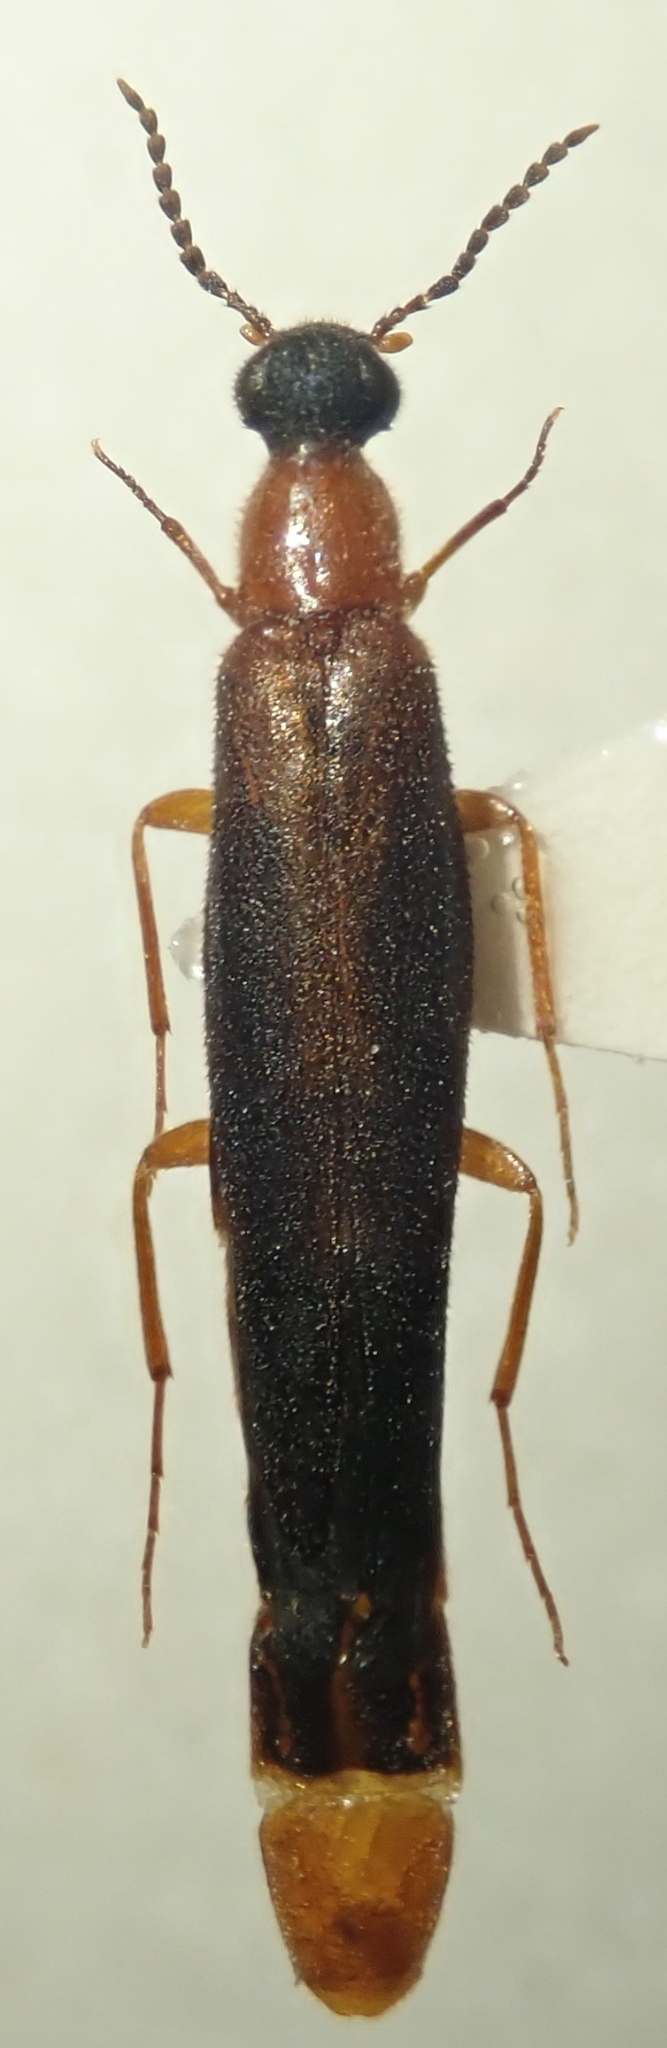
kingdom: Animalia
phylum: Arthropoda
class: Insecta
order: Coleoptera
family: Lymexylidae
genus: Lymexylon
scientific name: Lymexylon navale
